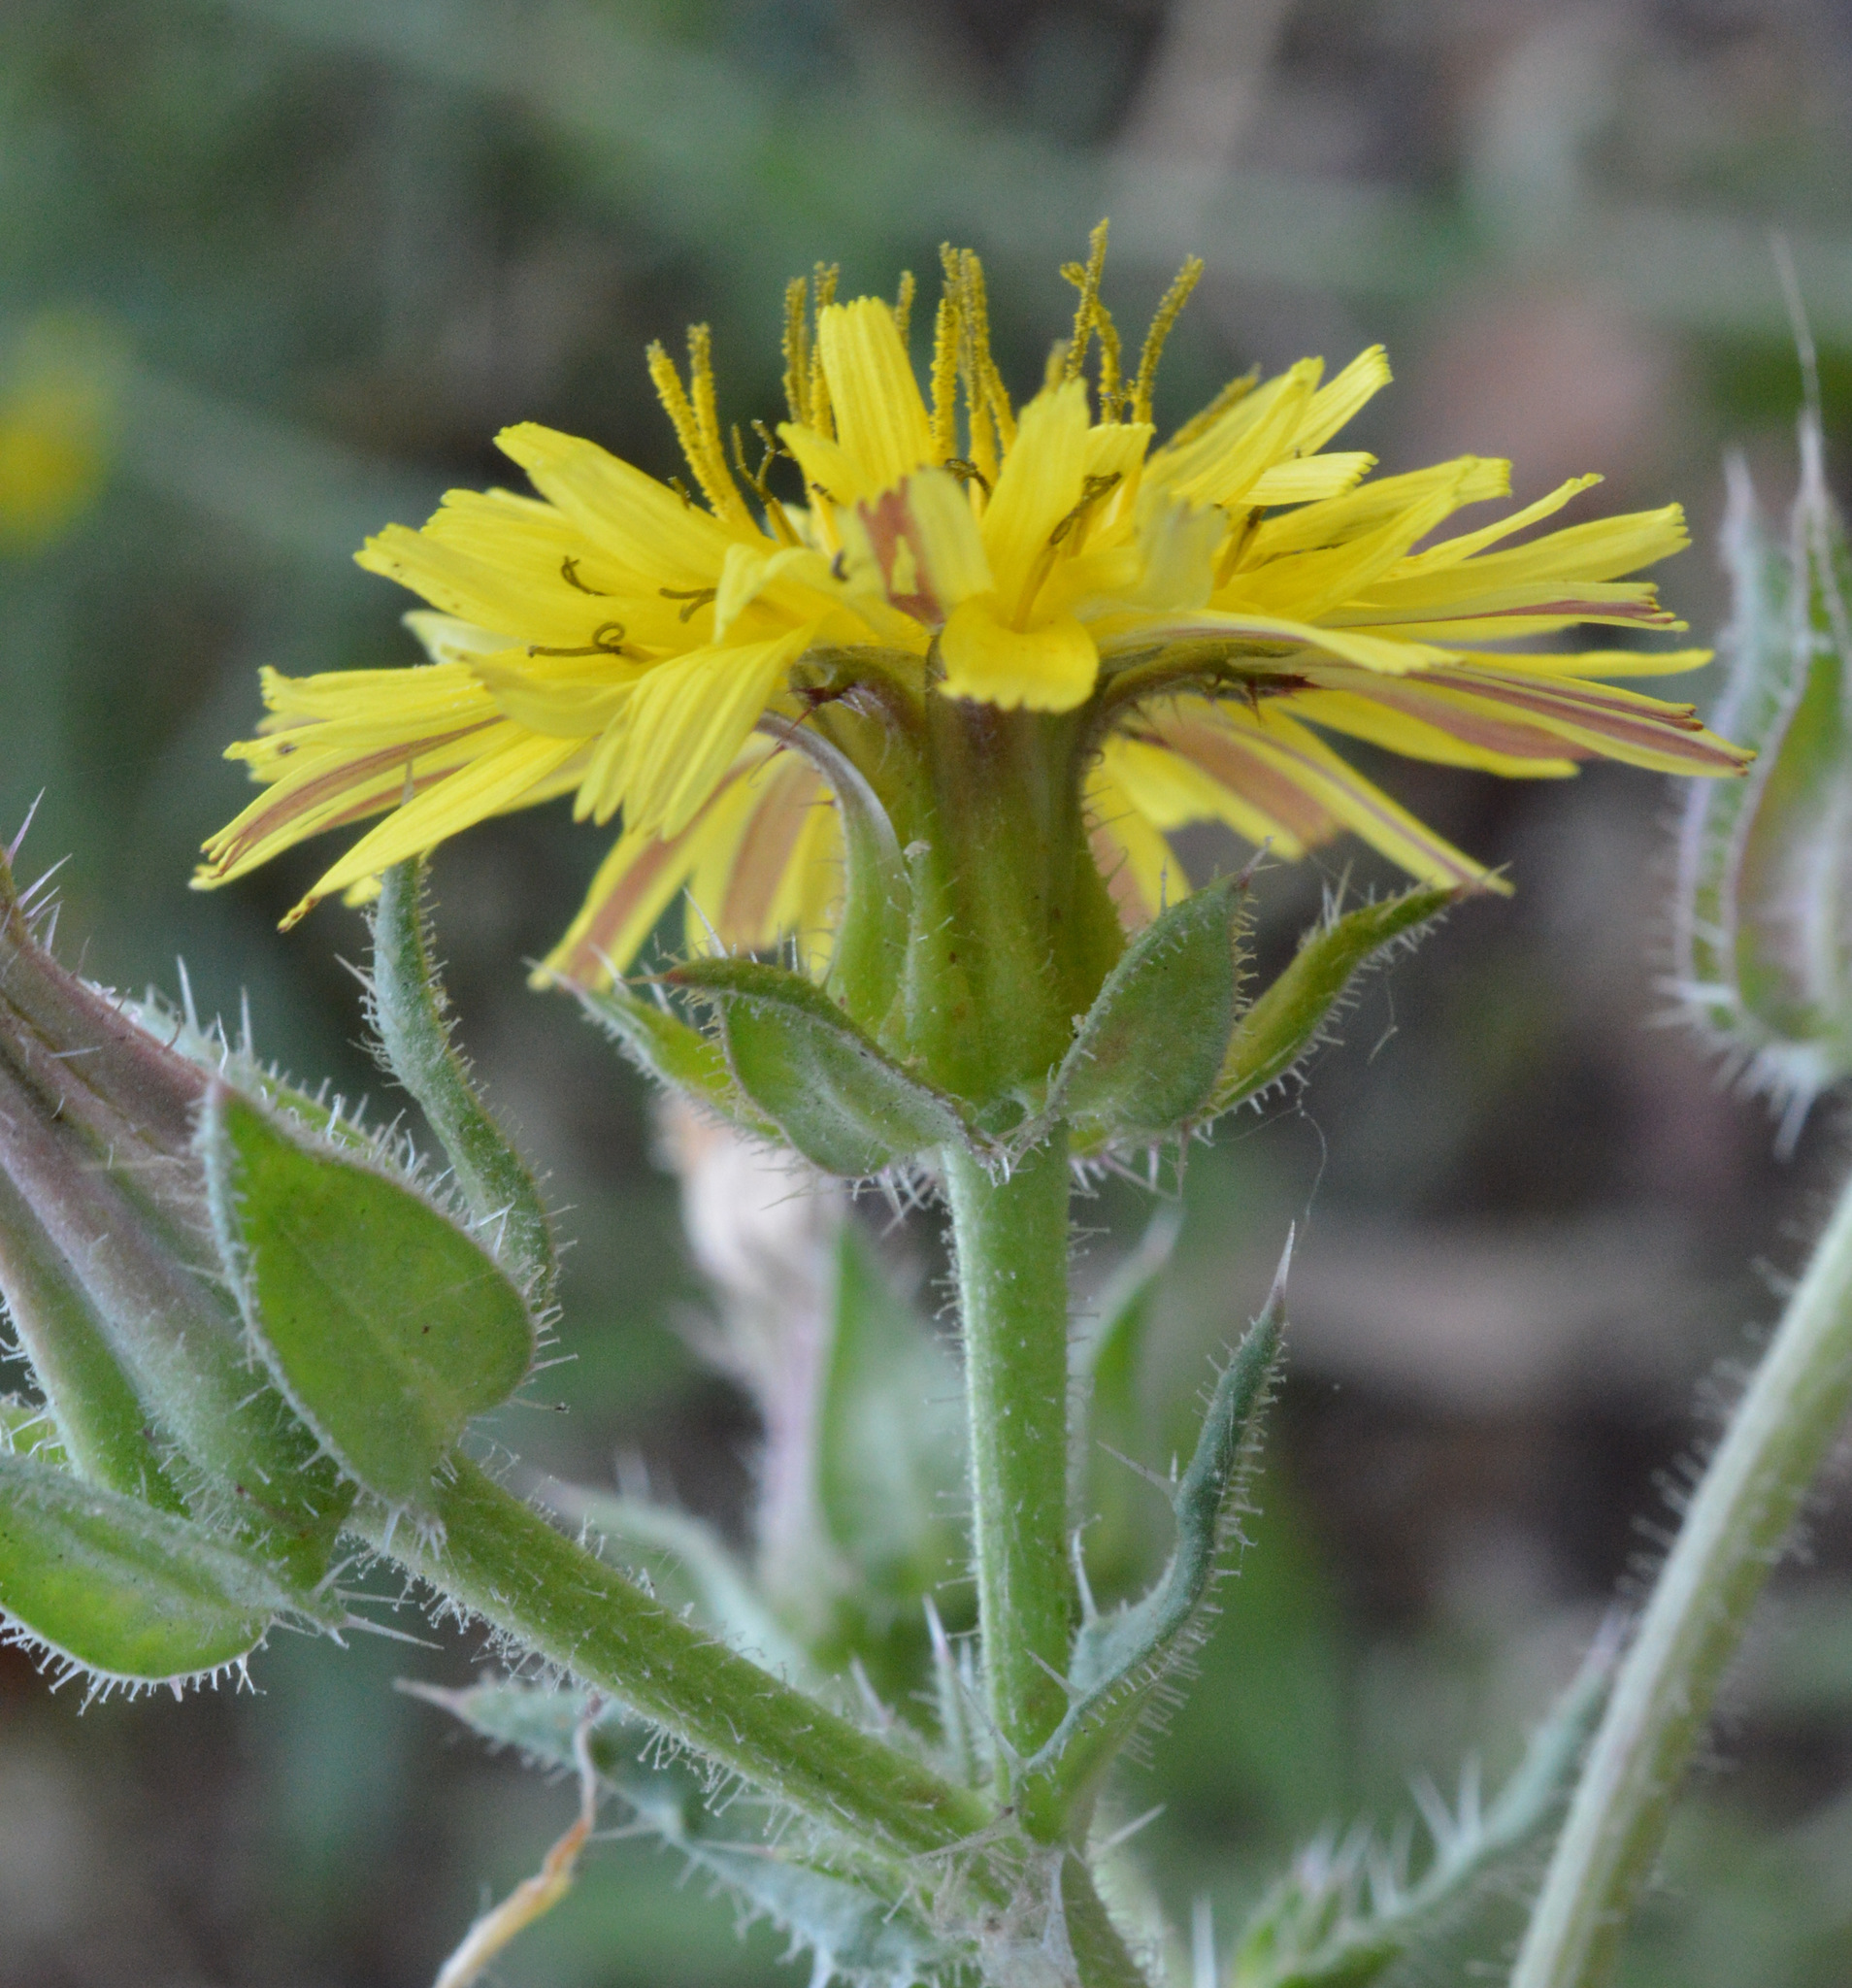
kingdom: Plantae
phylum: Tracheophyta
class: Magnoliopsida
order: Asterales
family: Asteraceae
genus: Helminthotheca
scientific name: Helminthotheca echioides
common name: Ox-tongue
